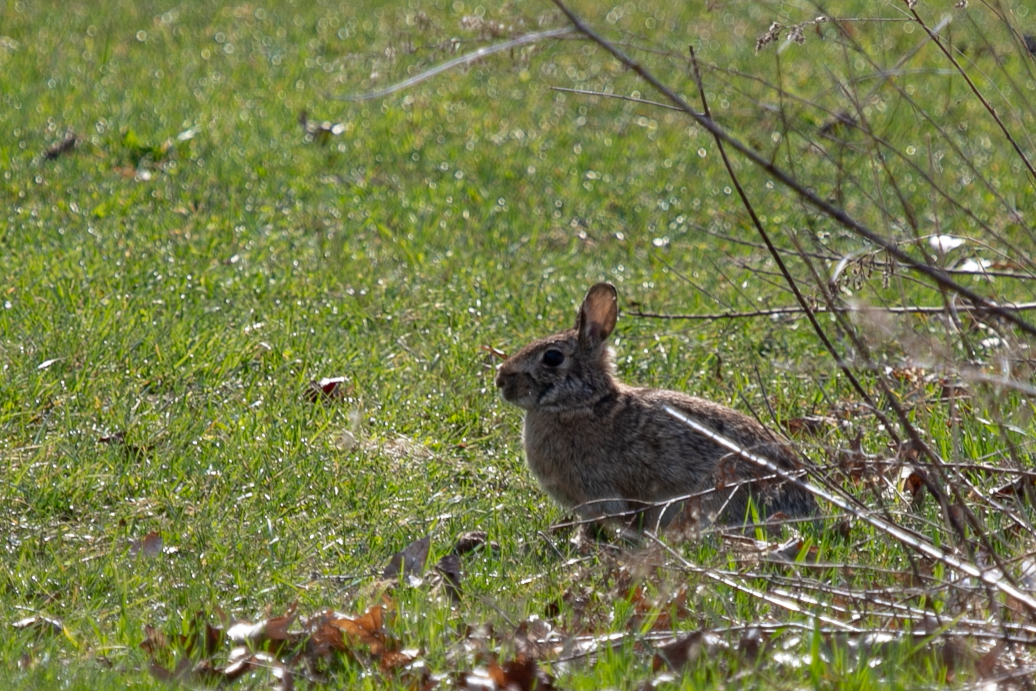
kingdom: Animalia
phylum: Chordata
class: Mammalia
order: Lagomorpha
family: Leporidae
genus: Sylvilagus
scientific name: Sylvilagus floridanus
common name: Eastern cottontail
